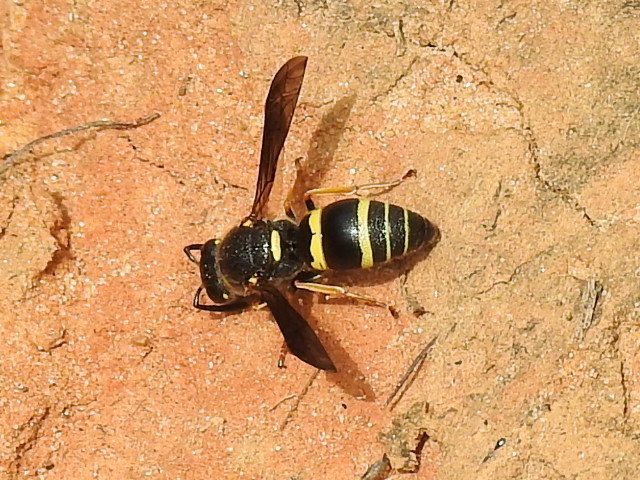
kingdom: Animalia
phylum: Arthropoda
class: Insecta
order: Hymenoptera
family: Eumenidae
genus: Euodynerus
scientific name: Euodynerus foraminatus
